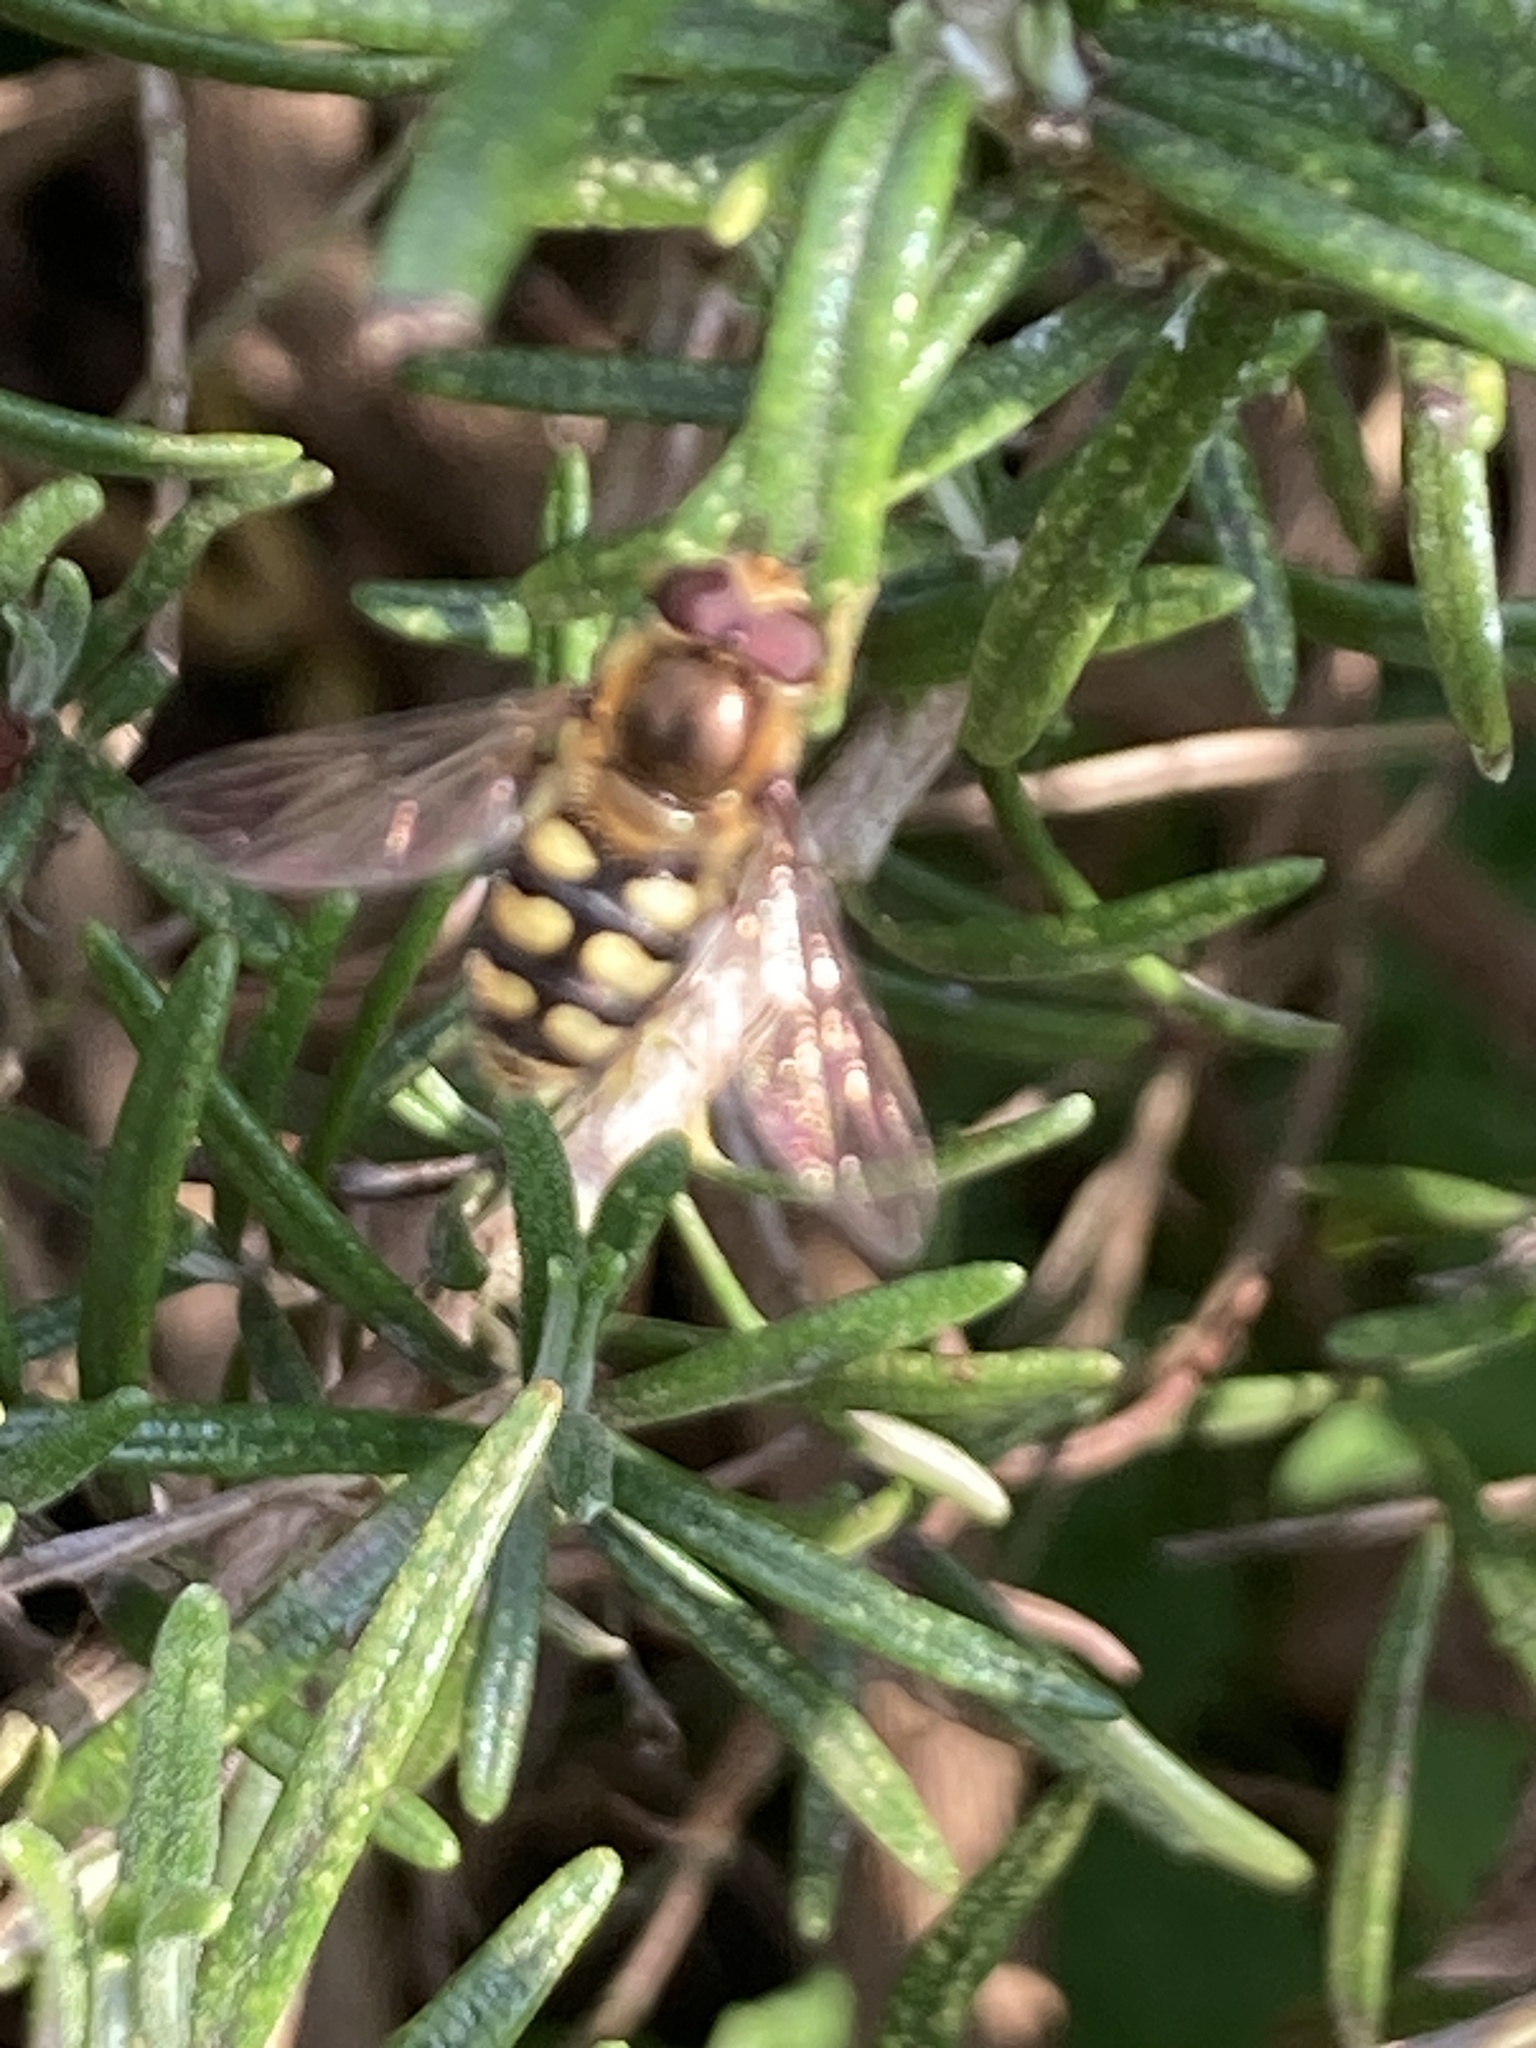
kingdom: Animalia
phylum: Arthropoda
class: Insecta
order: Diptera
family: Syrphidae
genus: Eupeodes
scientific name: Eupeodes
